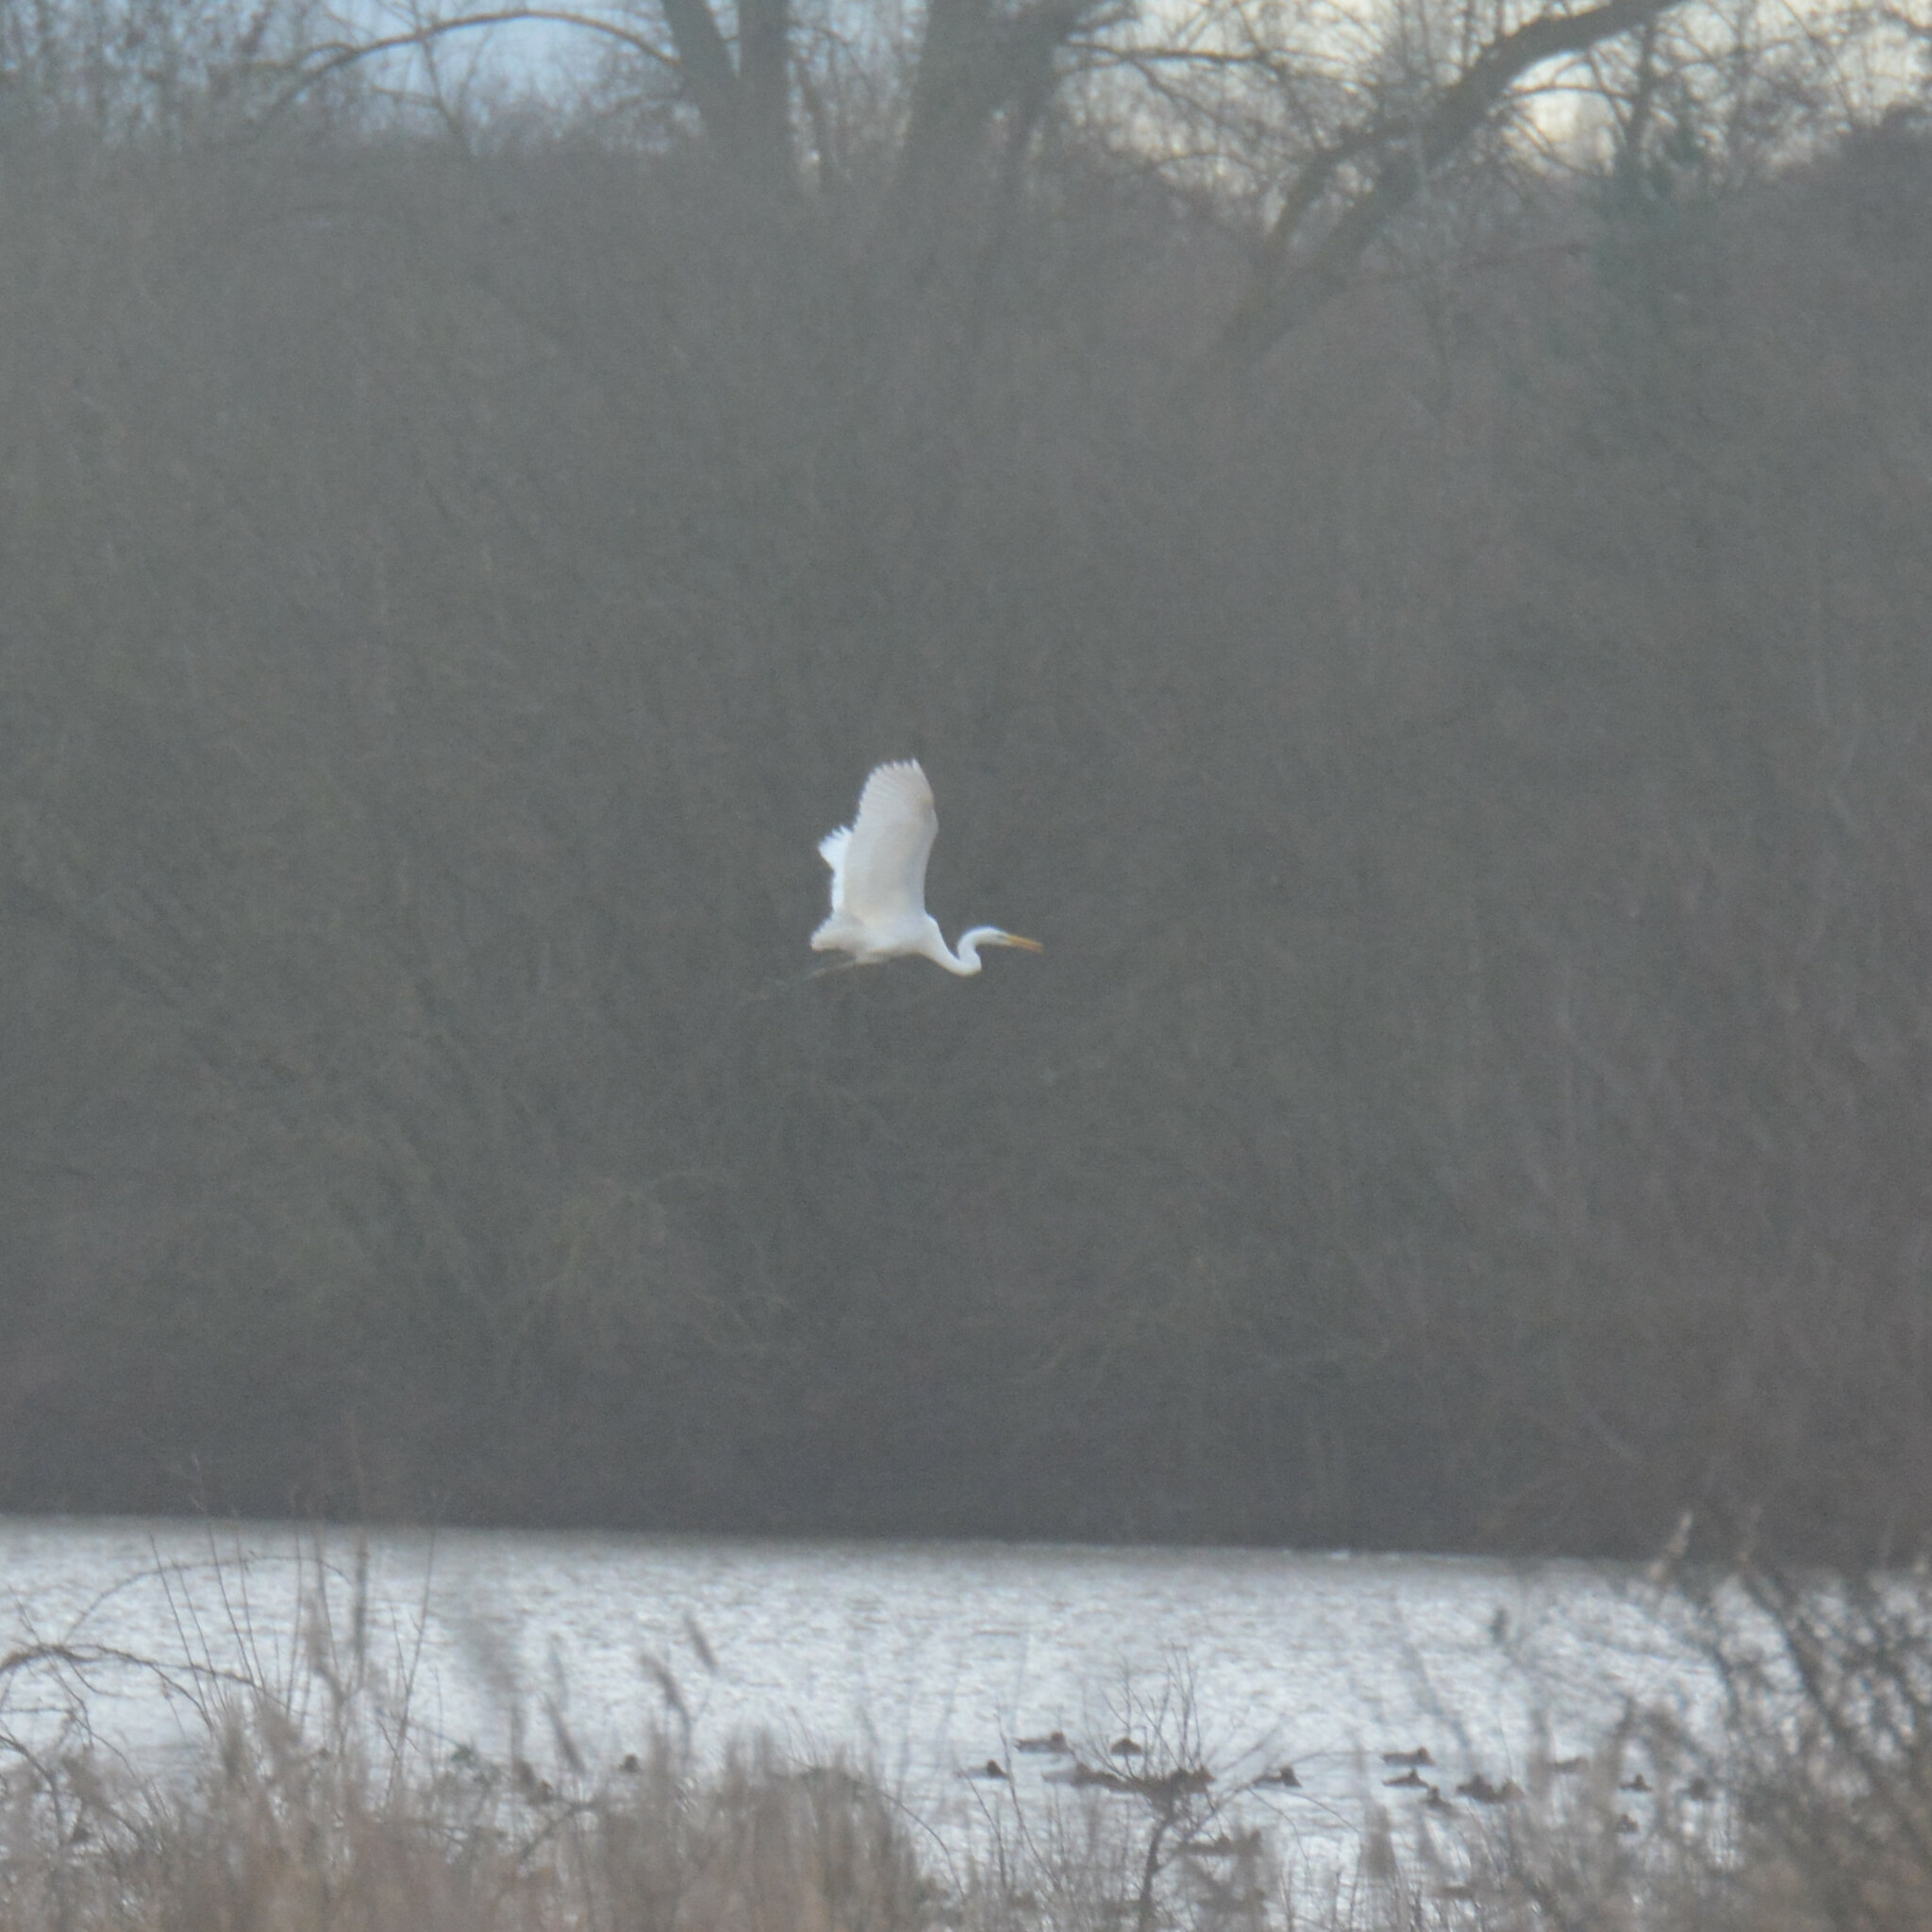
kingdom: Animalia
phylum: Chordata
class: Aves
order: Pelecaniformes
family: Ardeidae
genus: Ardea
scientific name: Ardea alba
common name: Great egret
